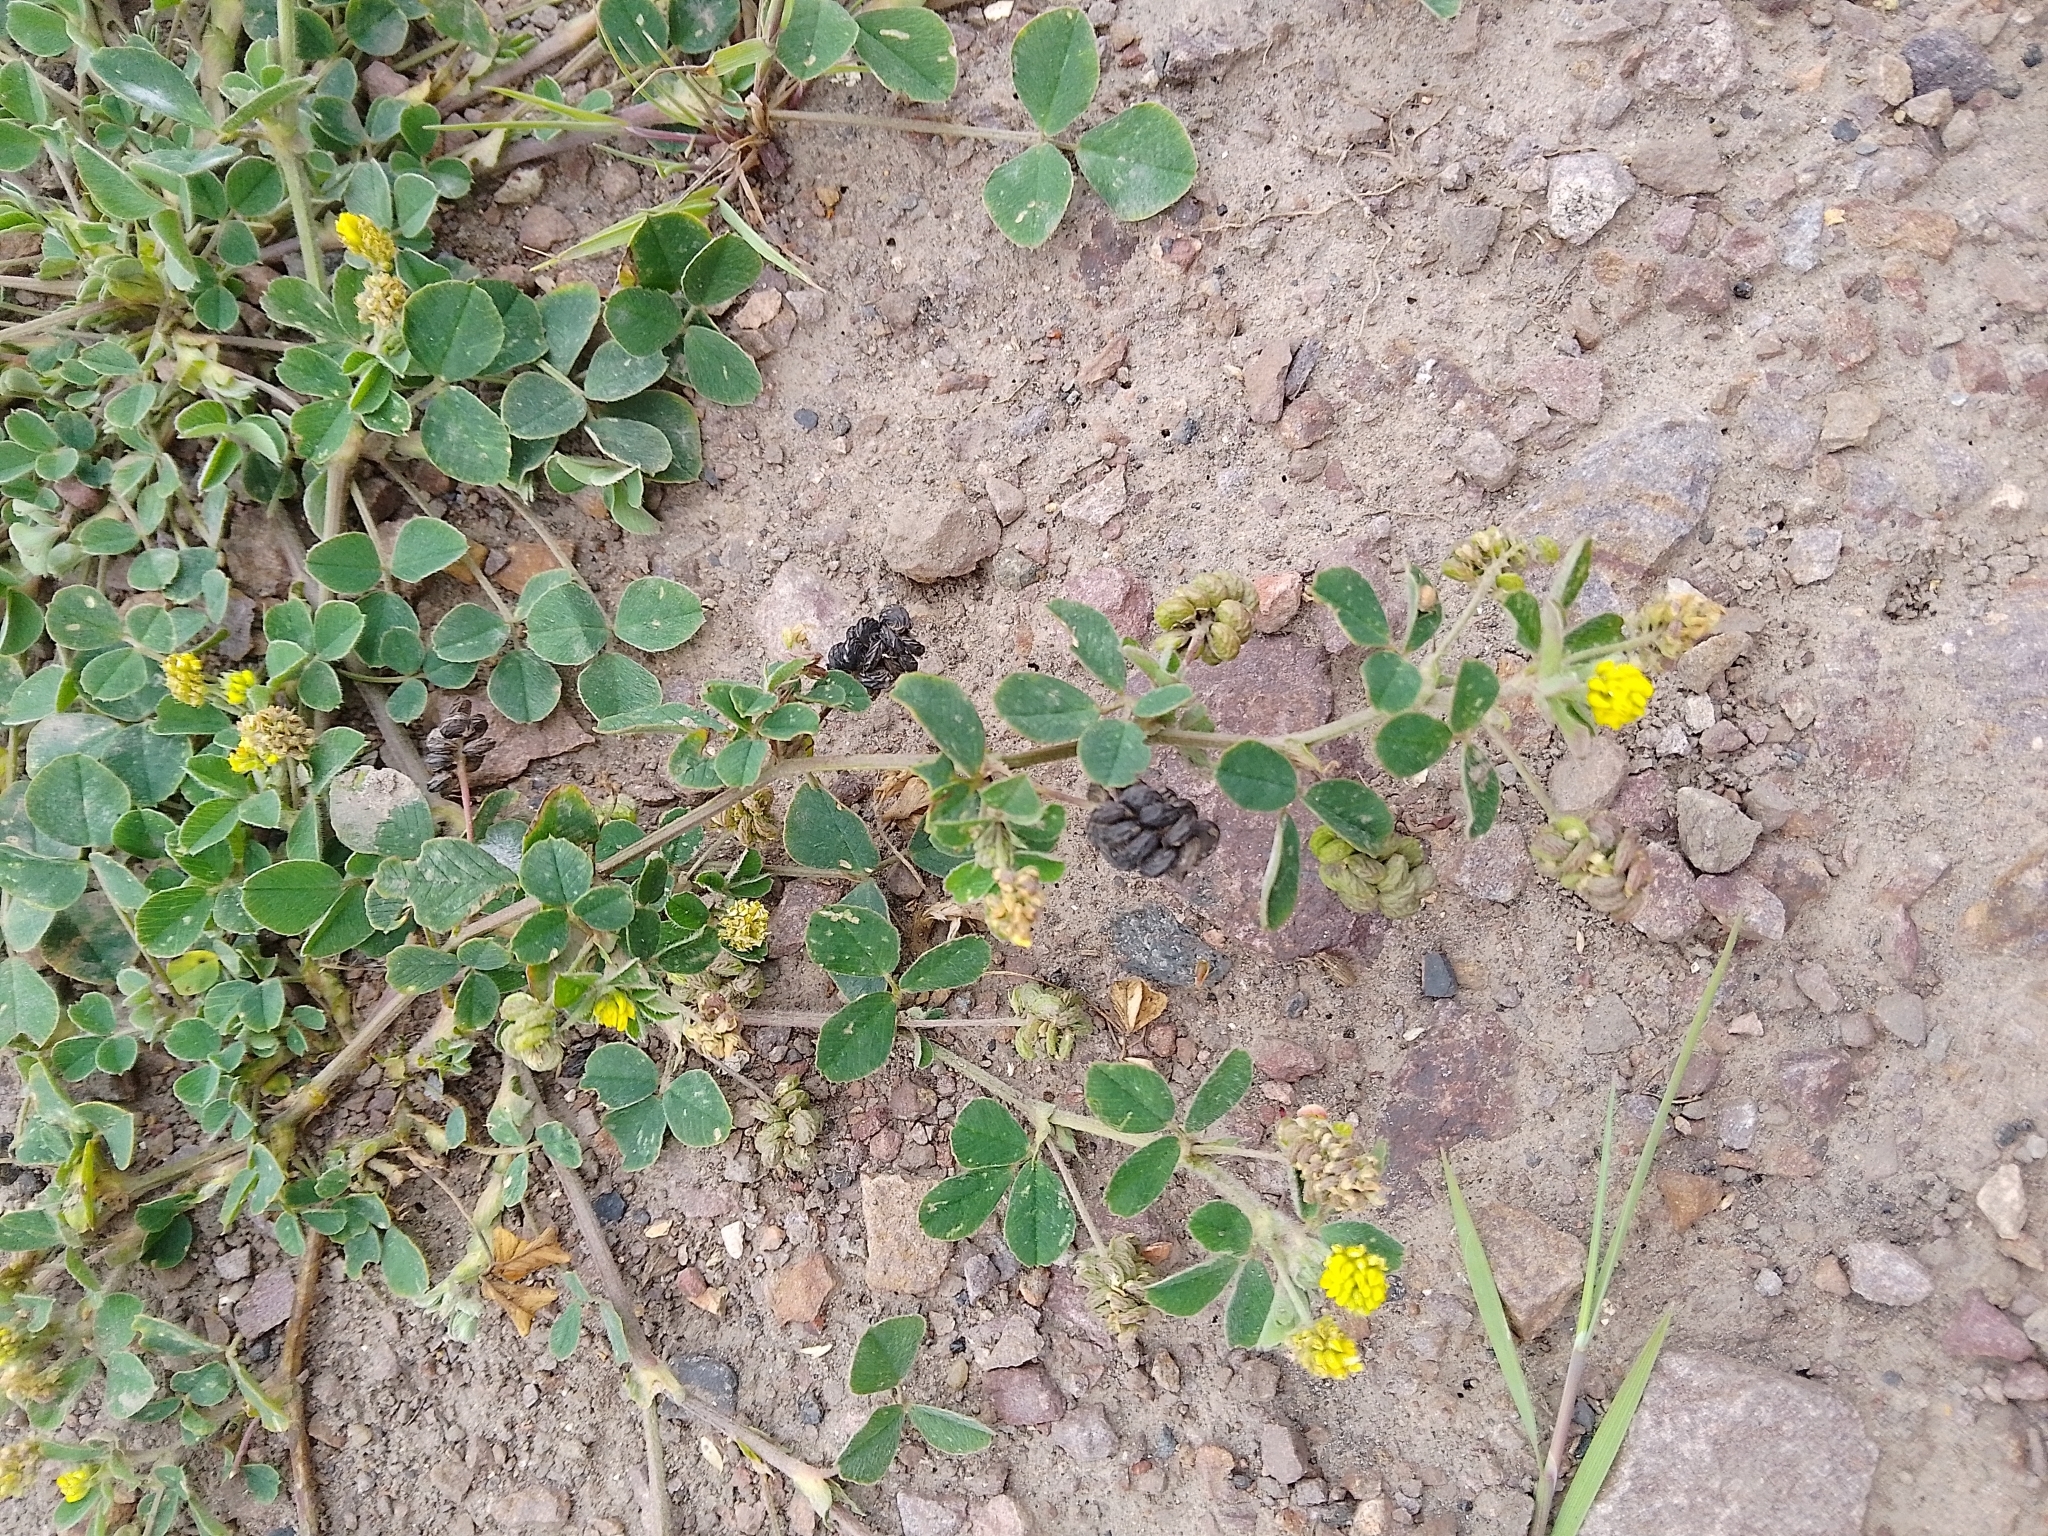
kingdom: Plantae
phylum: Tracheophyta
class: Magnoliopsida
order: Fabales
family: Fabaceae
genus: Medicago
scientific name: Medicago lupulina
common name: Black medick
